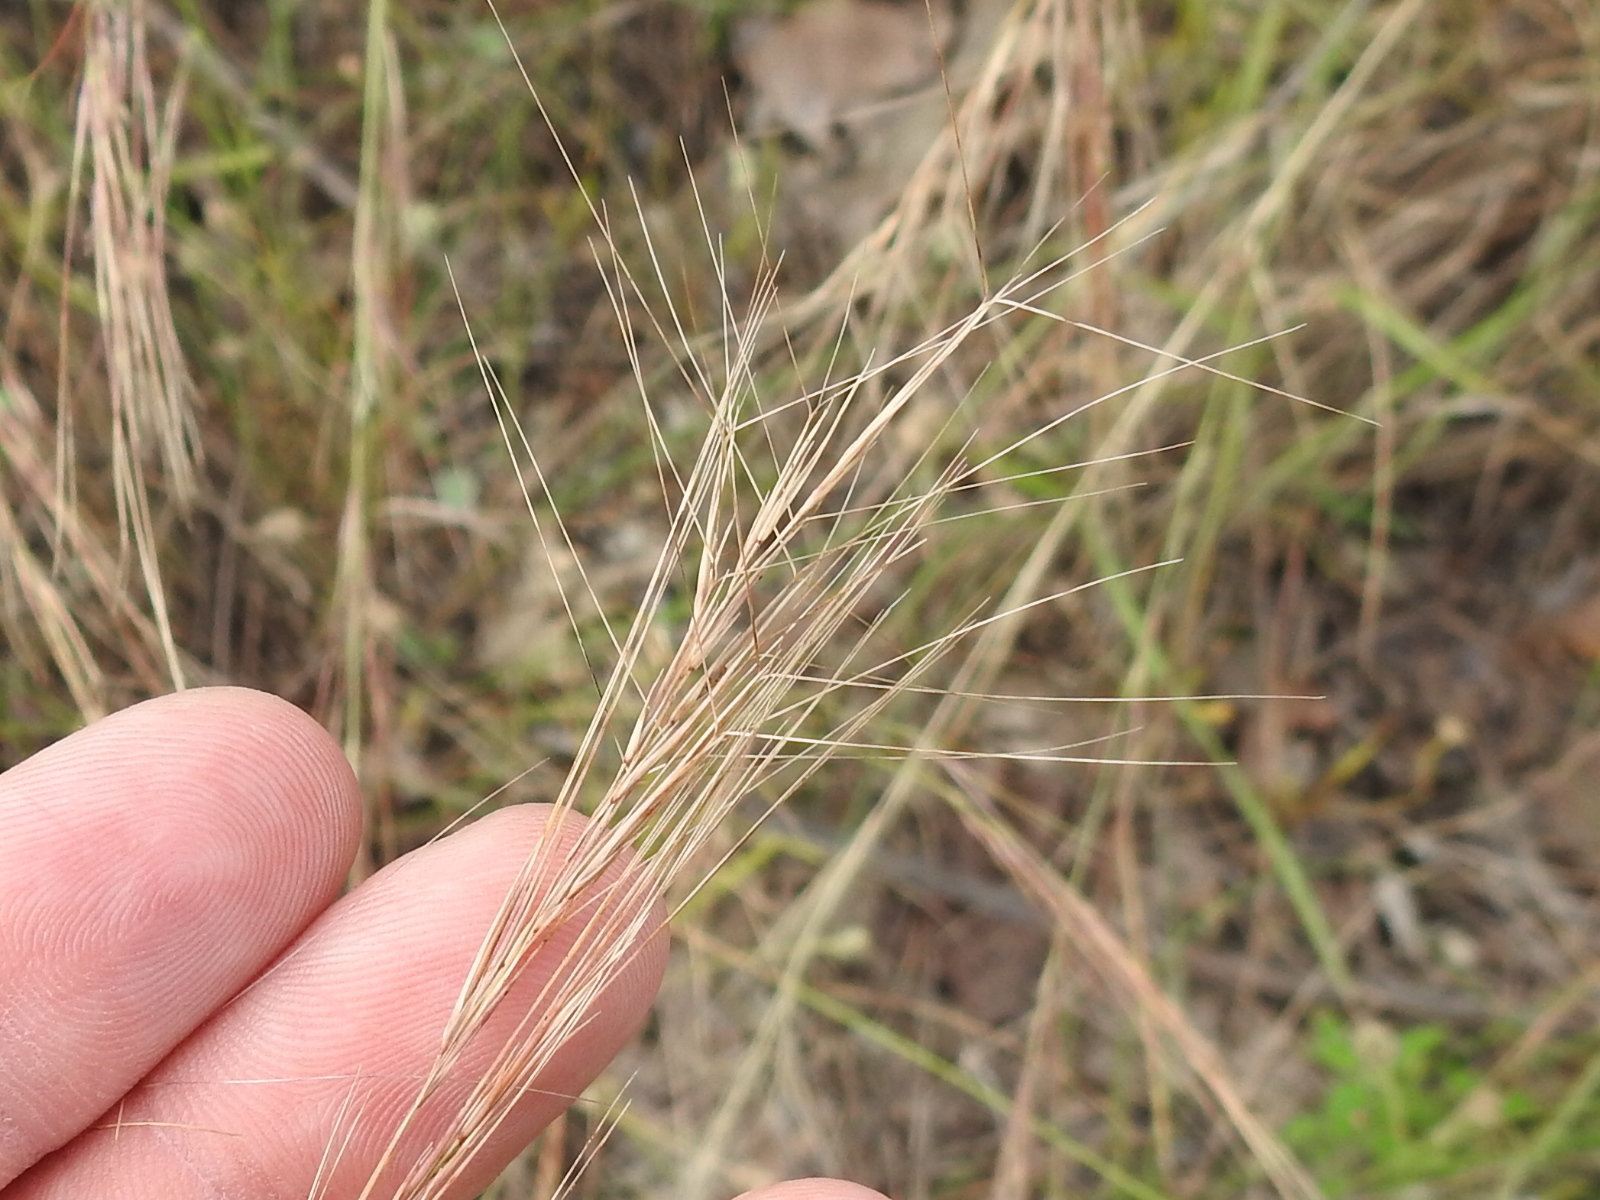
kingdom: Plantae
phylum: Tracheophyta
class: Liliopsida
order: Poales
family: Poaceae
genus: Aristida
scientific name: Aristida purpurea
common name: Purple threeawn
